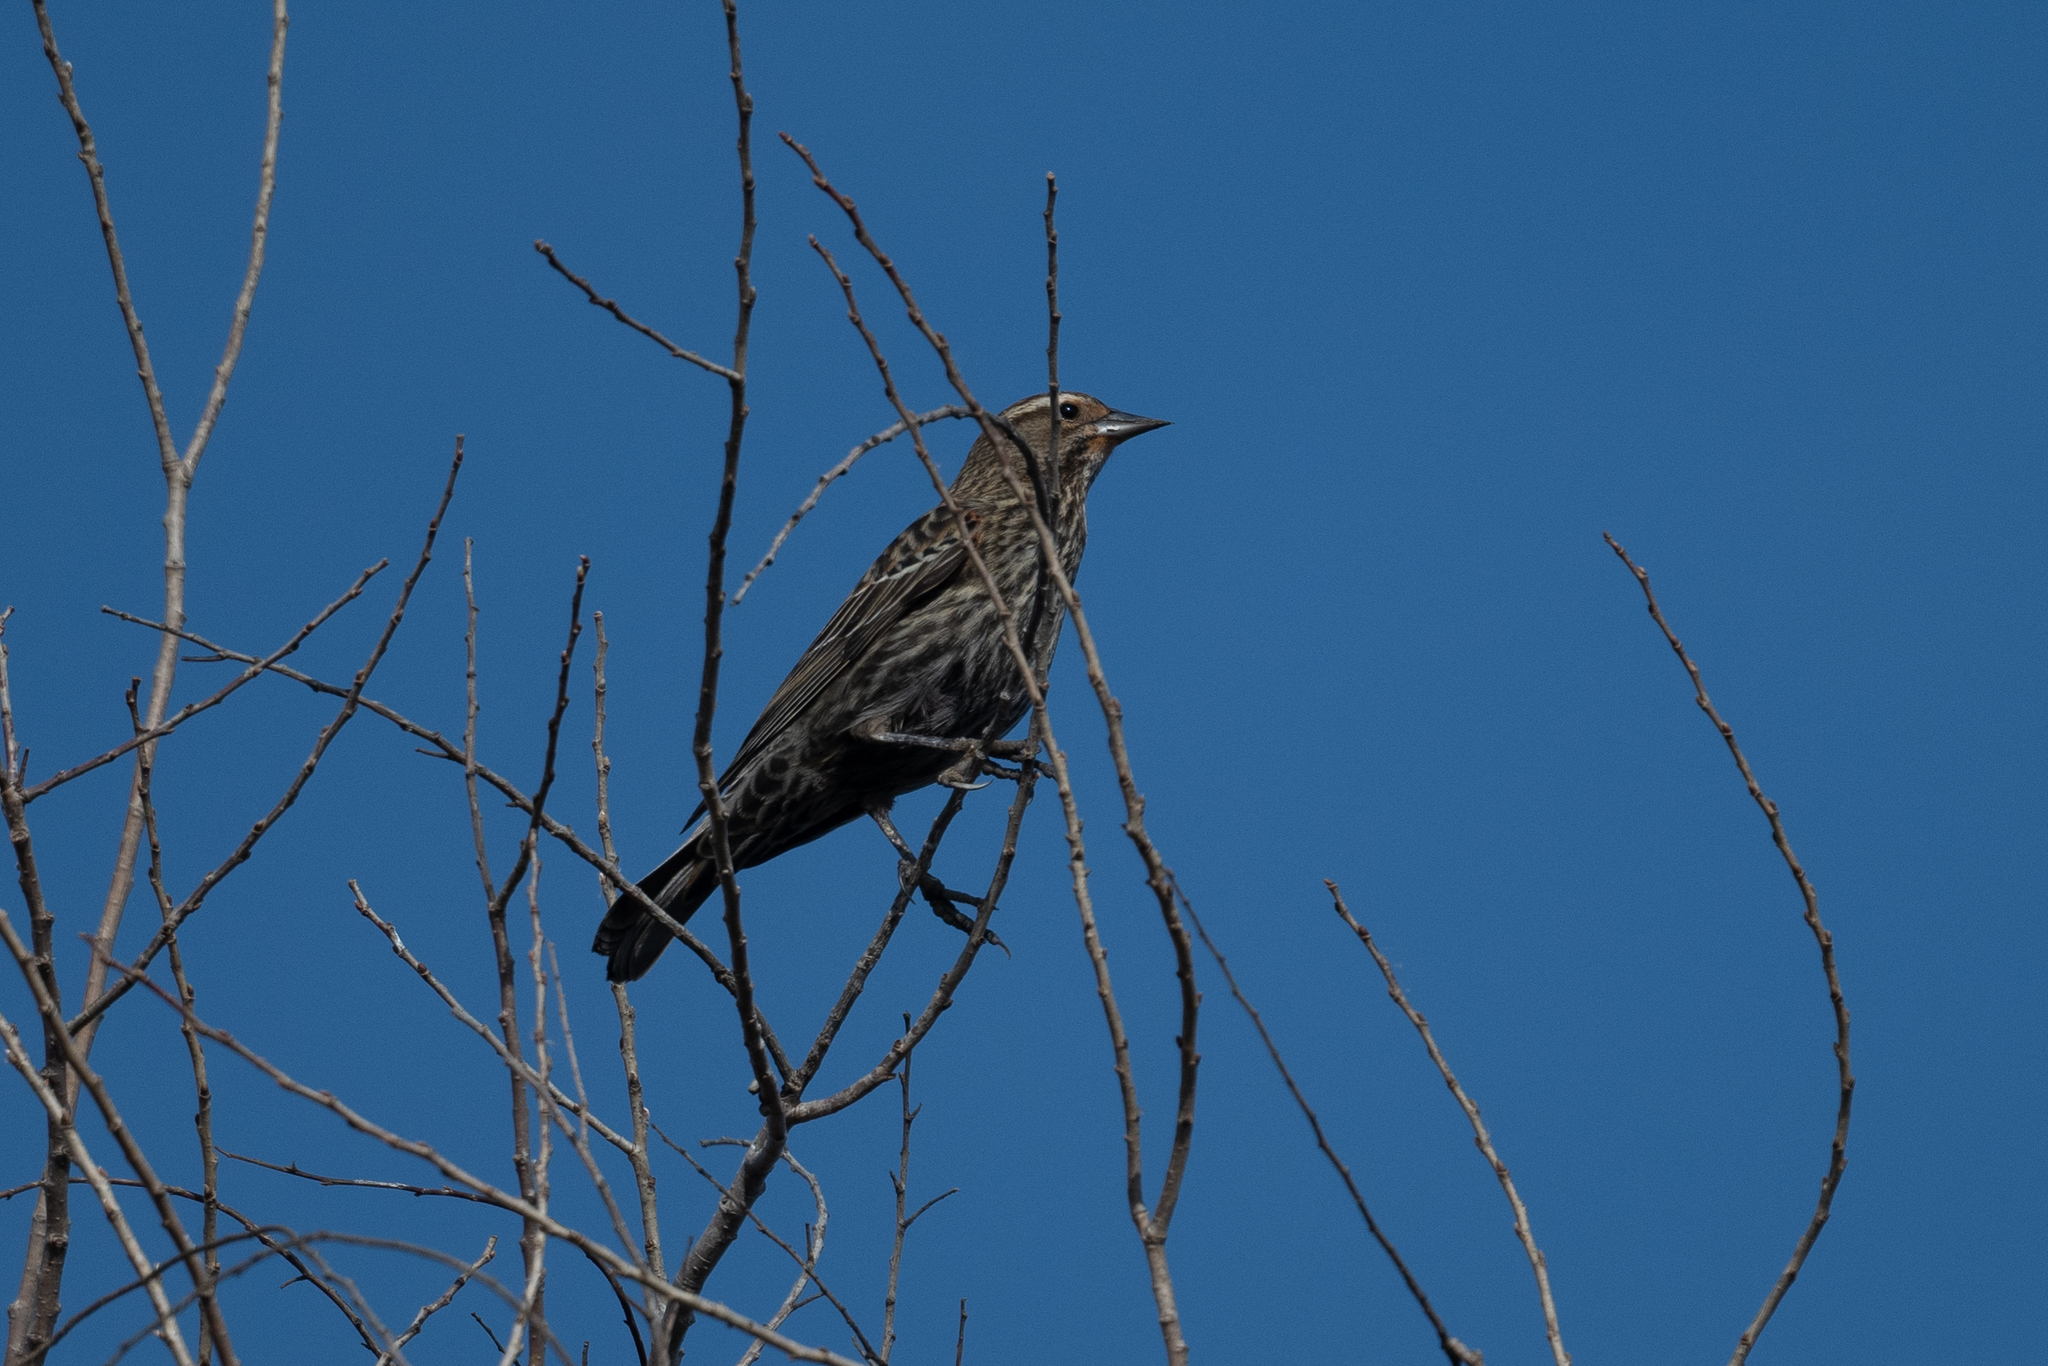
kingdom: Animalia
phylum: Chordata
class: Aves
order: Passeriformes
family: Icteridae
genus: Agelaius
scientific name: Agelaius phoeniceus
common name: Red-winged blackbird
